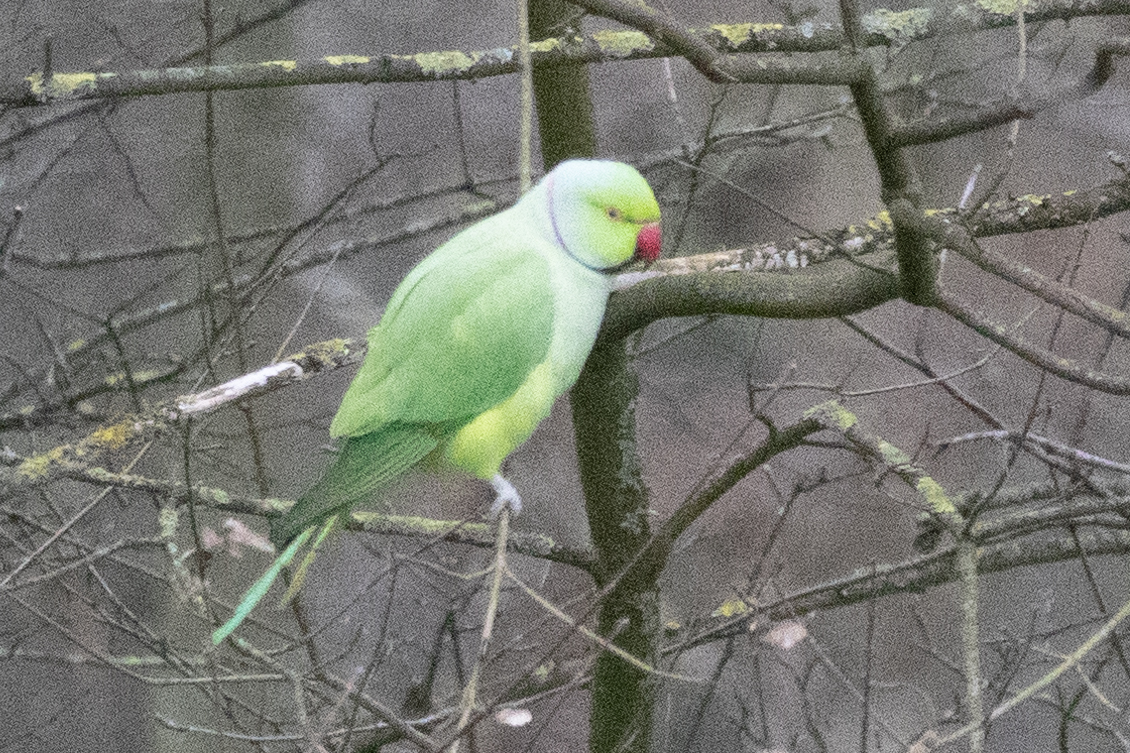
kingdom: Animalia
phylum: Chordata
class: Aves
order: Psittaciformes
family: Psittacidae
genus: Psittacula
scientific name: Psittacula krameri
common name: Rose-ringed parakeet
